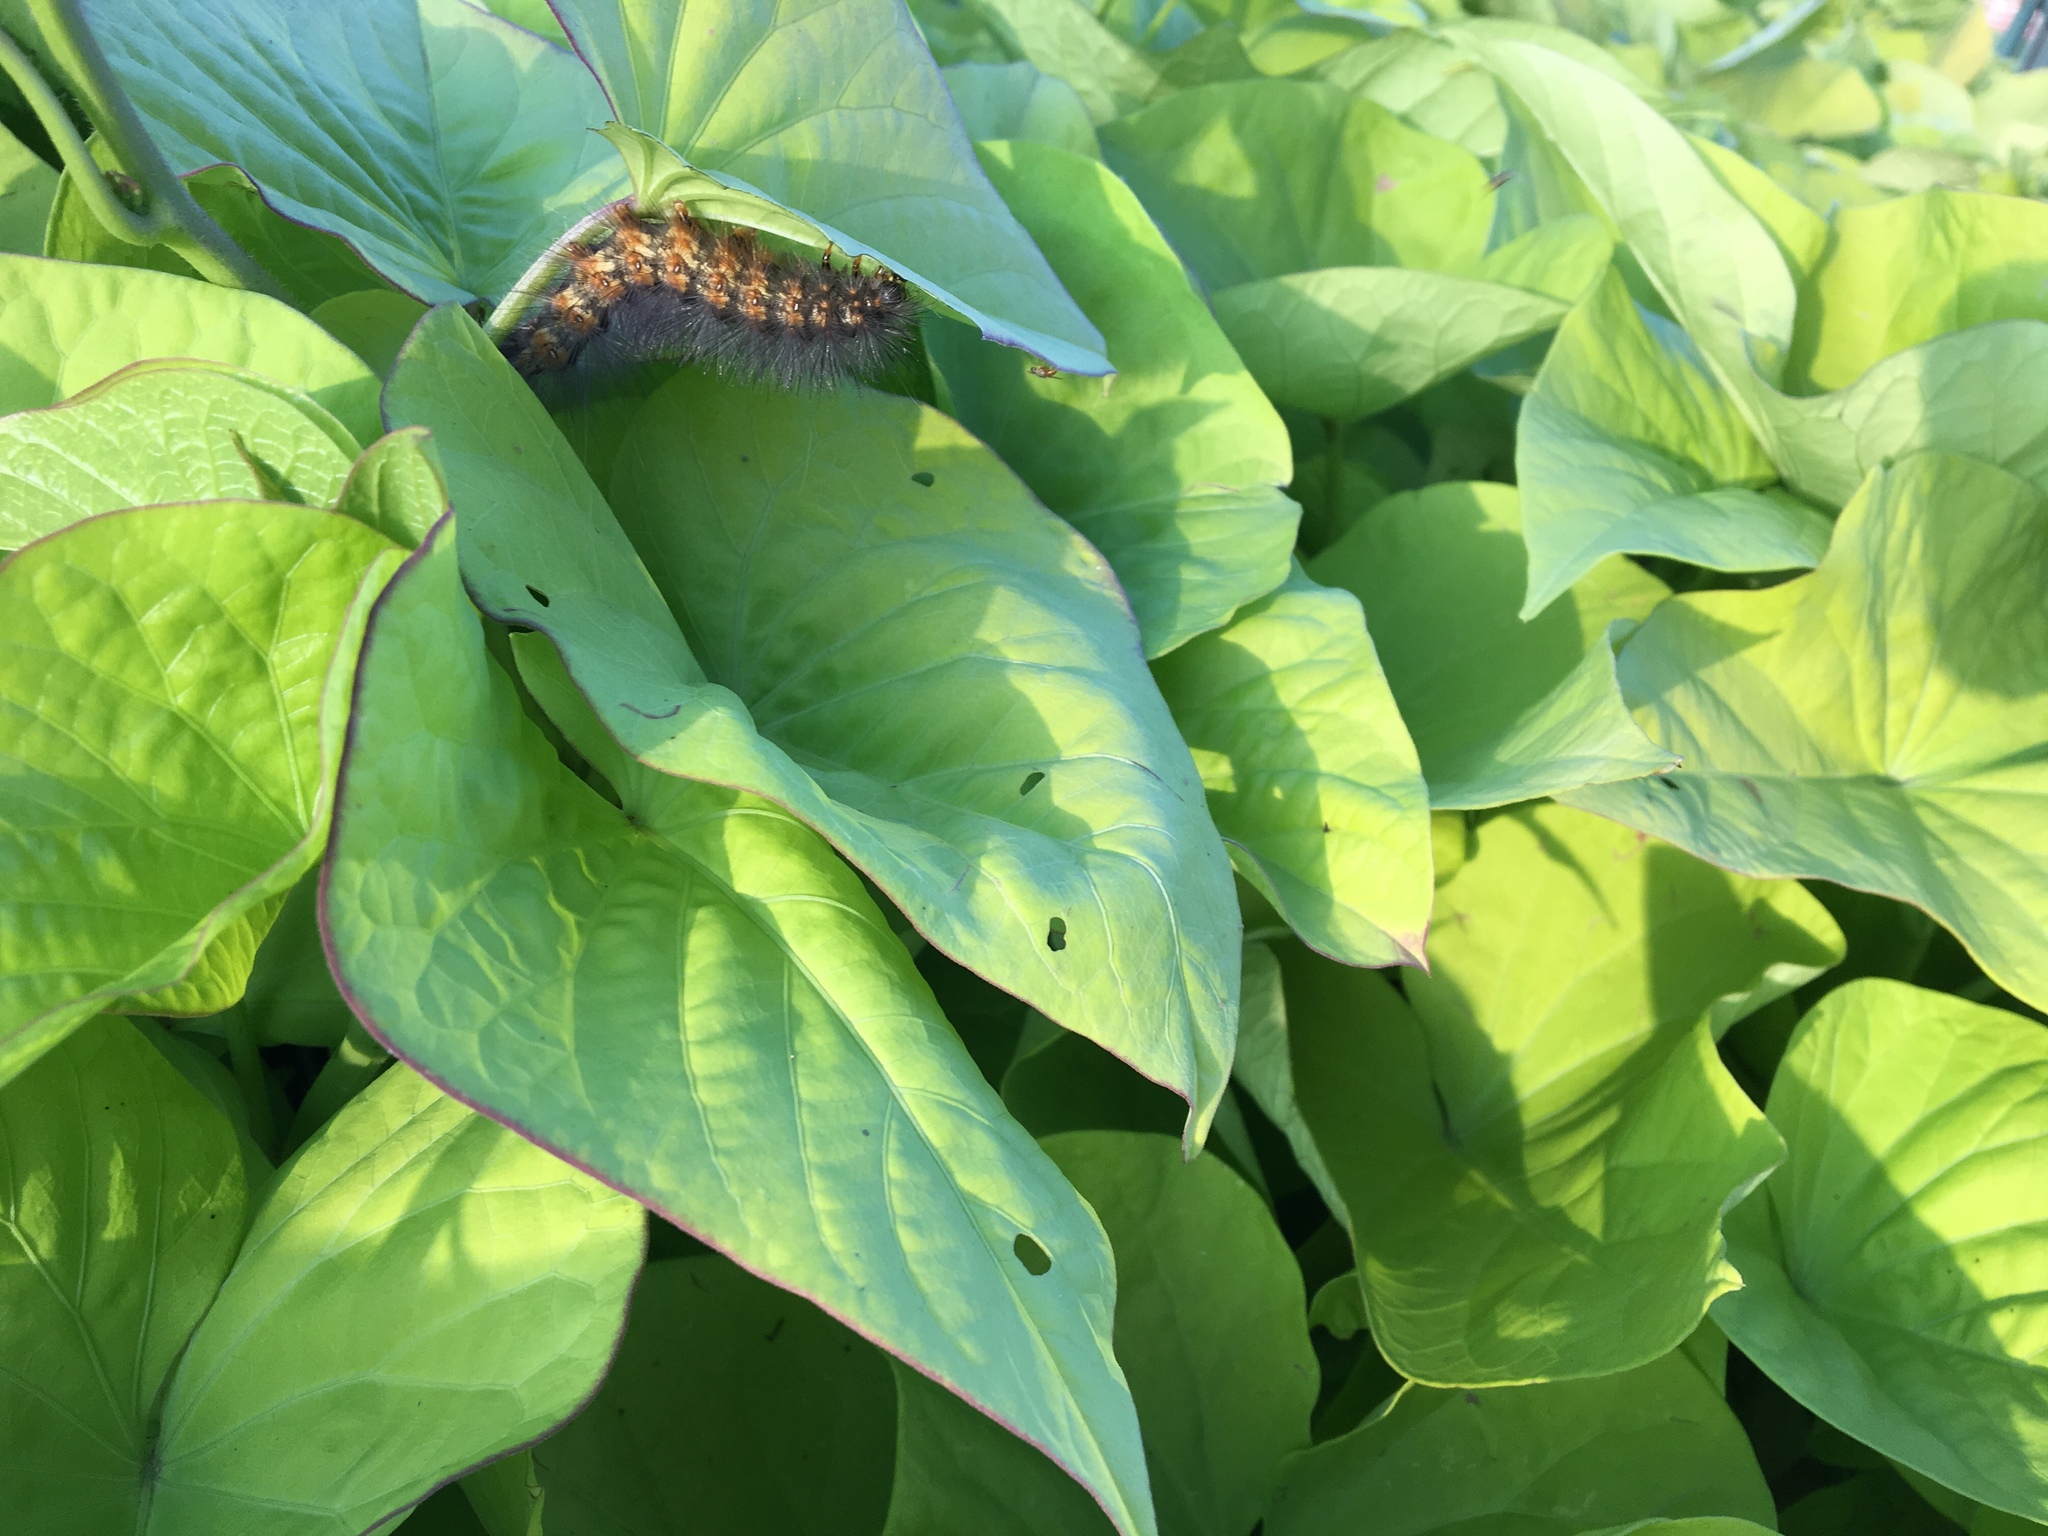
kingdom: Animalia
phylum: Arthropoda
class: Insecta
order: Lepidoptera
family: Erebidae
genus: Estigmene
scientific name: Estigmene acrea
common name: Salt marsh moth
